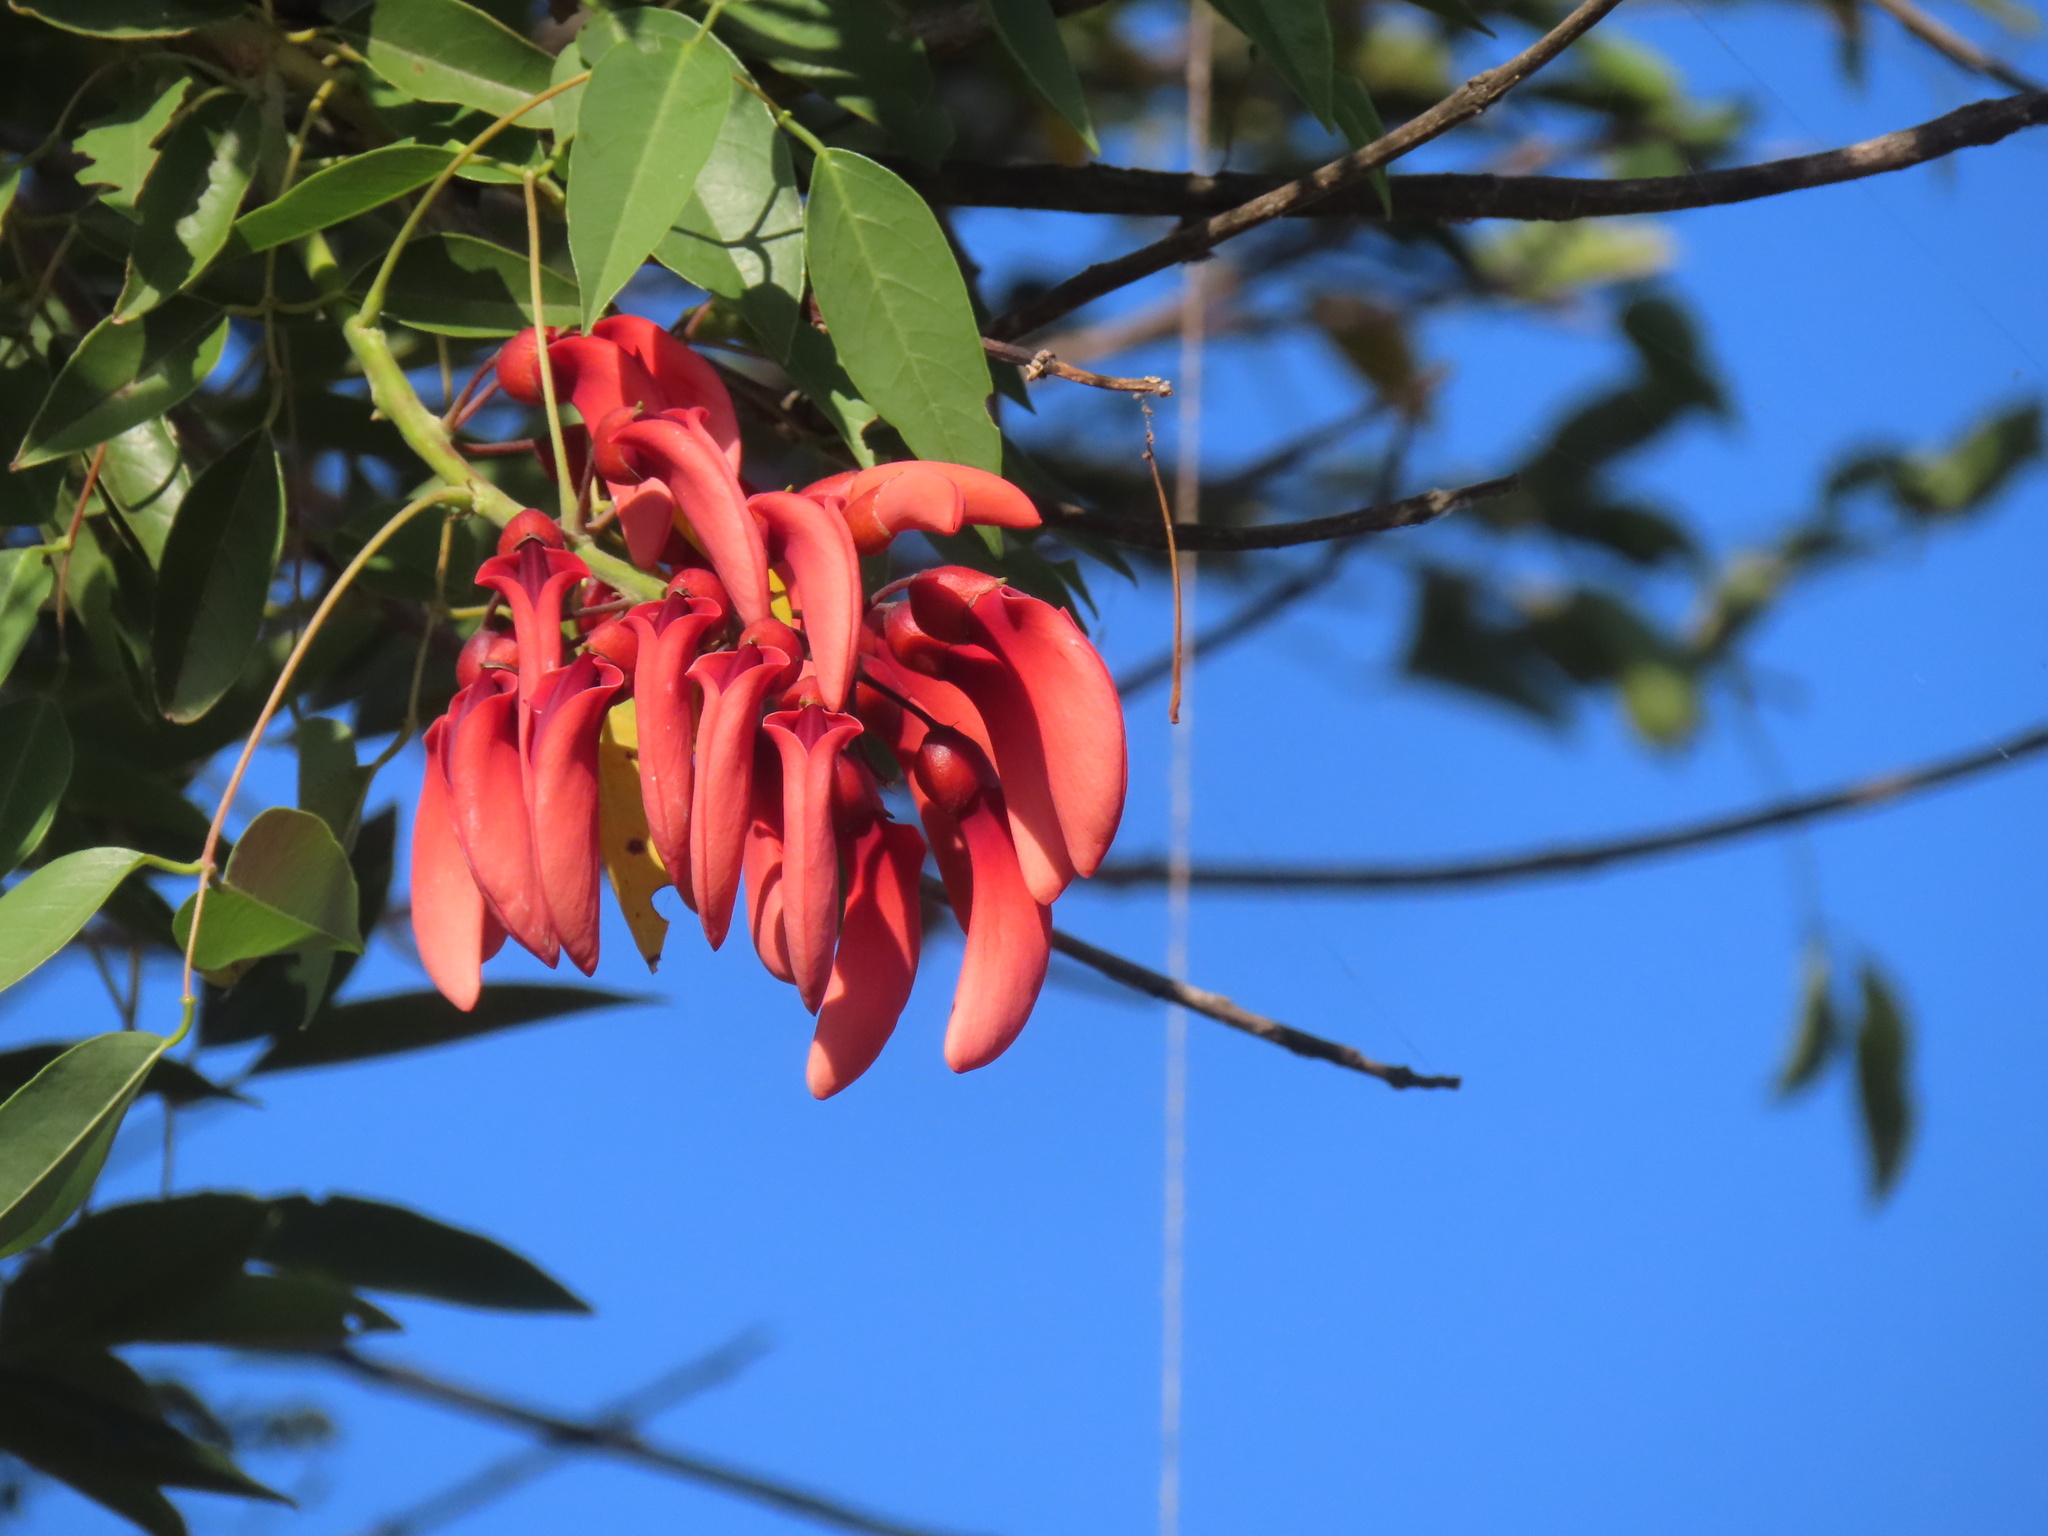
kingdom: Plantae
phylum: Tracheophyta
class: Magnoliopsida
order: Fabales
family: Fabaceae
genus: Erythrina
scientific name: Erythrina crista-galli
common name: Cockspur coral tree
